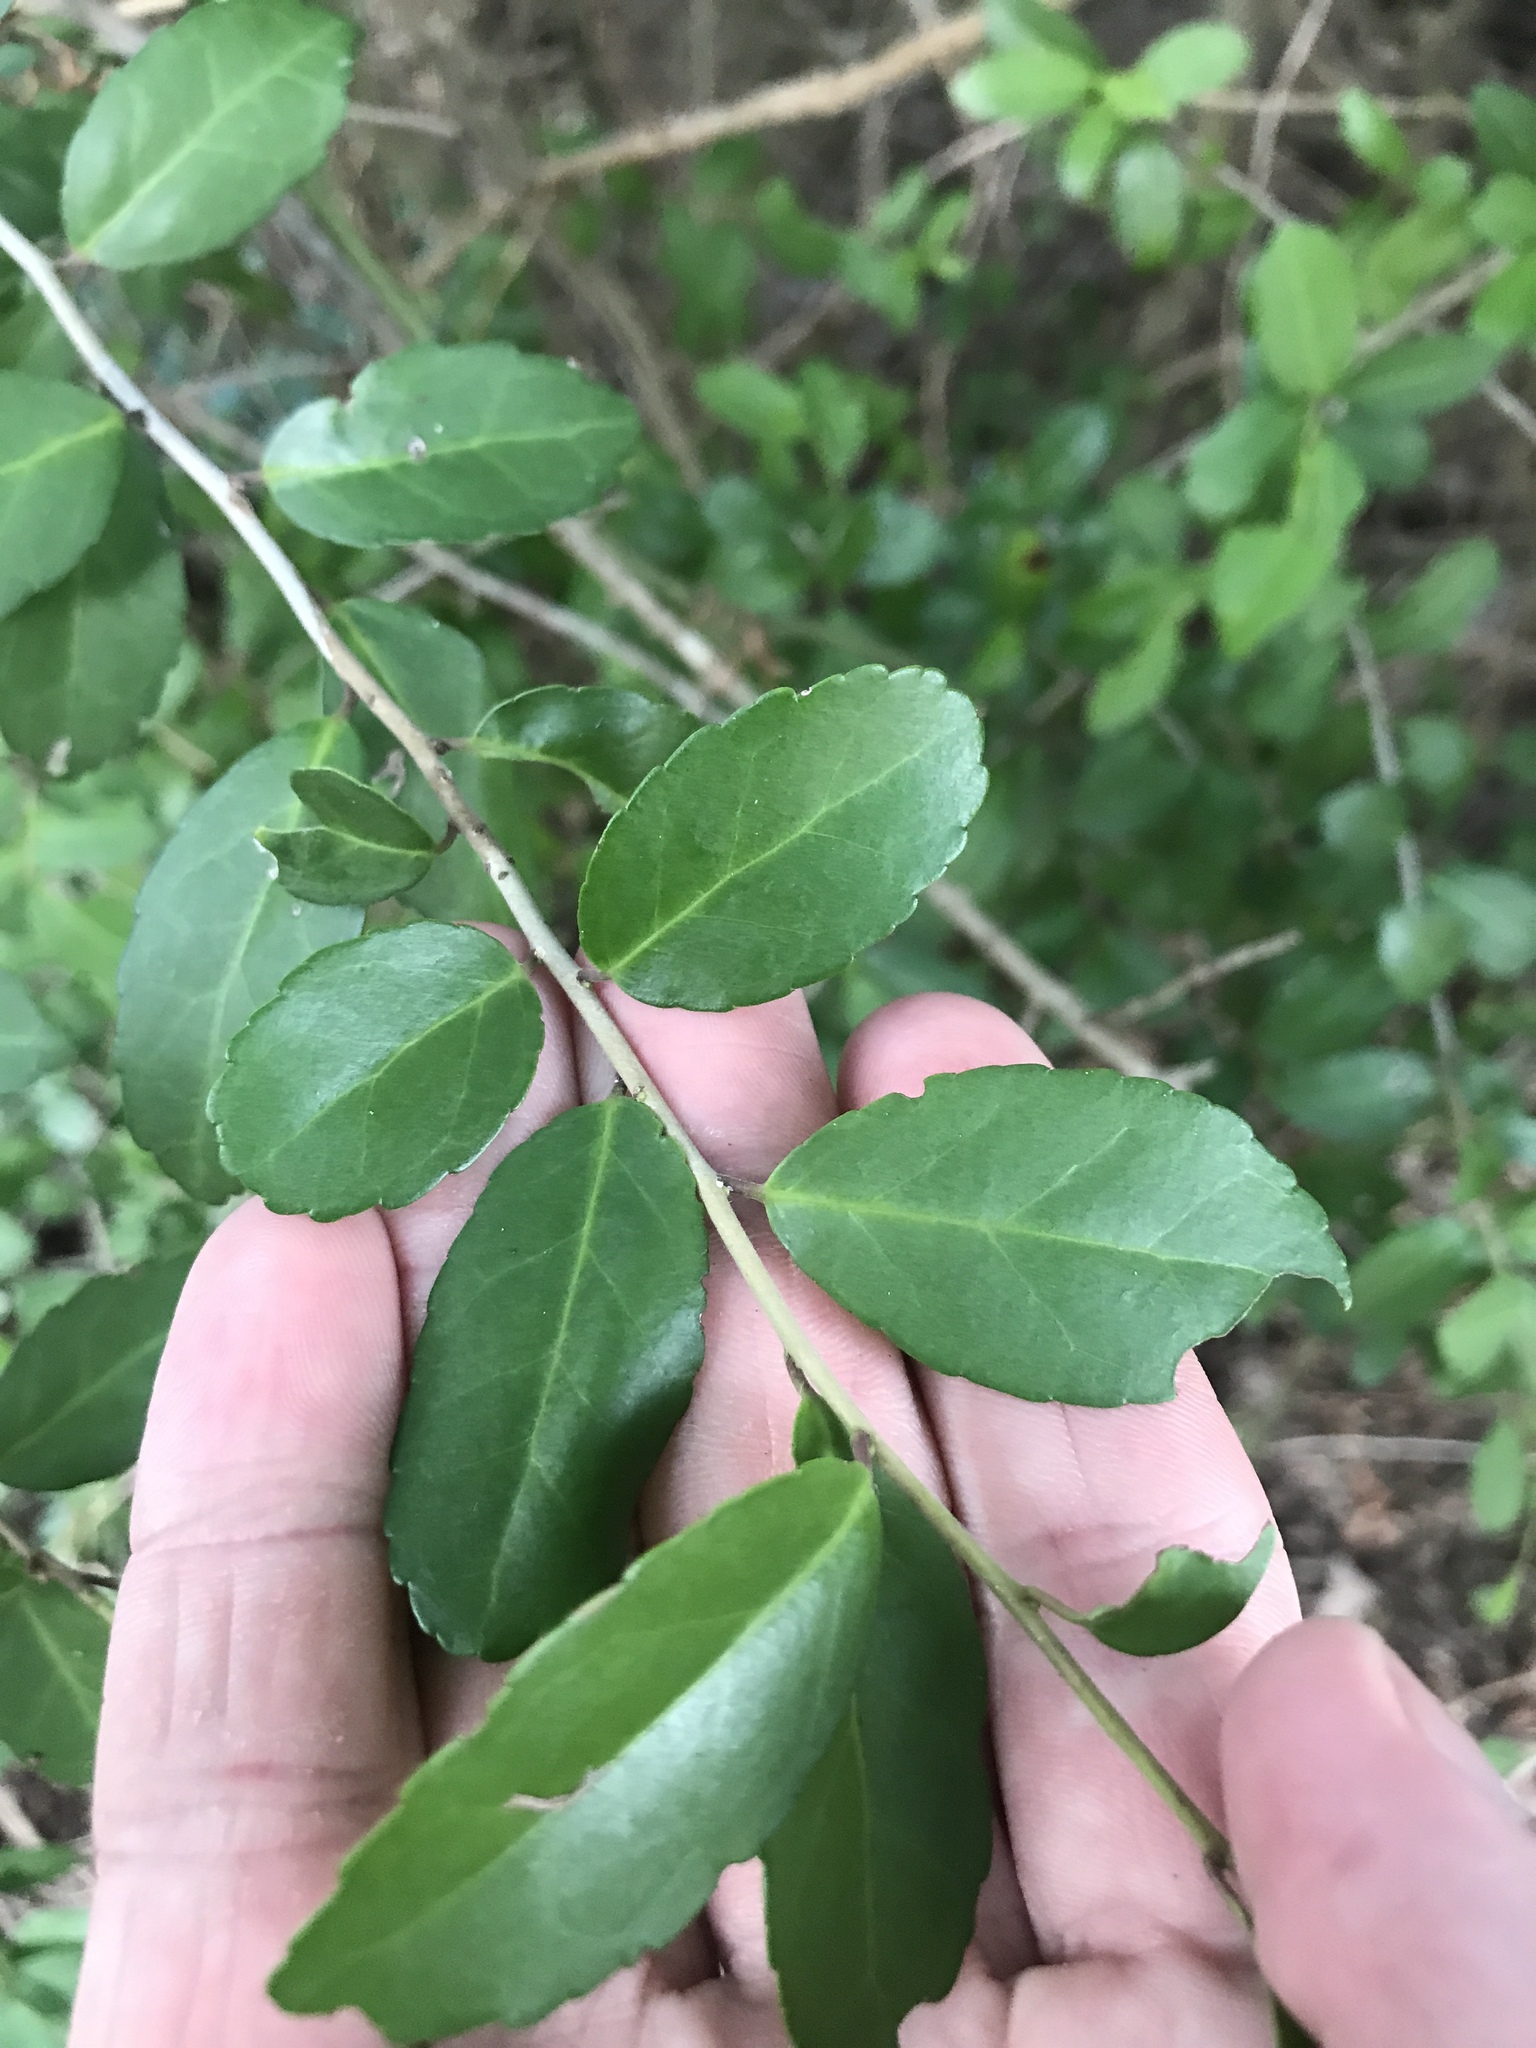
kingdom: Plantae
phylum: Tracheophyta
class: Magnoliopsida
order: Aquifoliales
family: Aquifoliaceae
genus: Ilex
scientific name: Ilex vomitoria
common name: Yaupon holly
